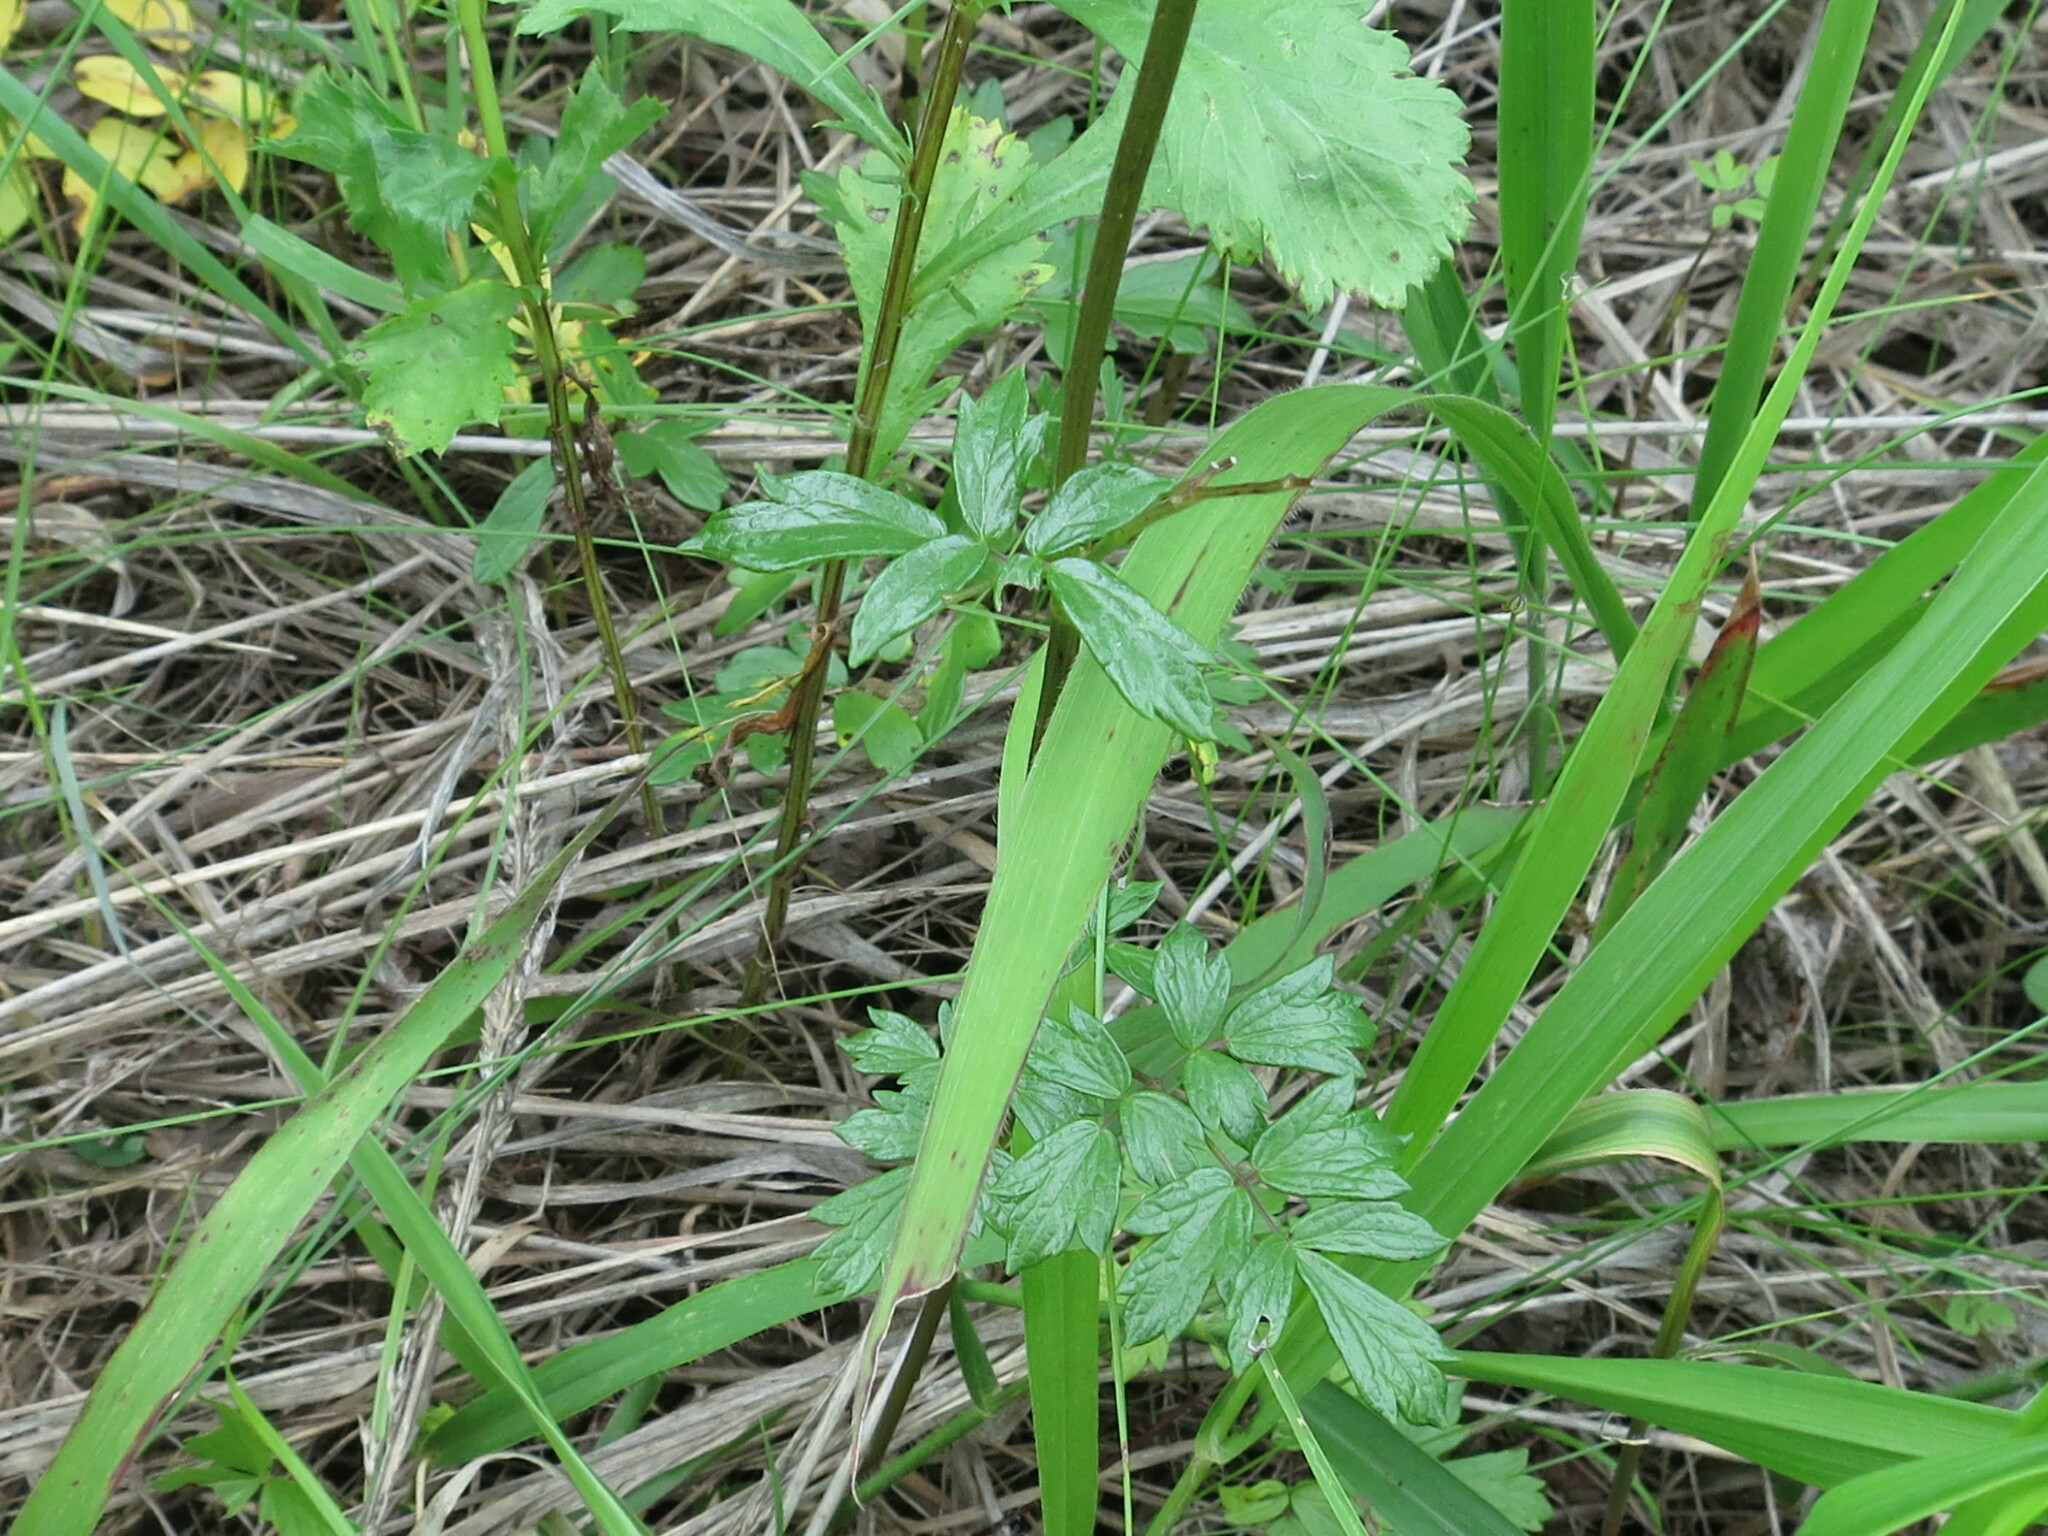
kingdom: Plantae
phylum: Tracheophyta
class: Magnoliopsida
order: Ranunculales
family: Ranunculaceae
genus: Thalictrum
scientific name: Thalictrum simplex
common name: Small meadow-rue
